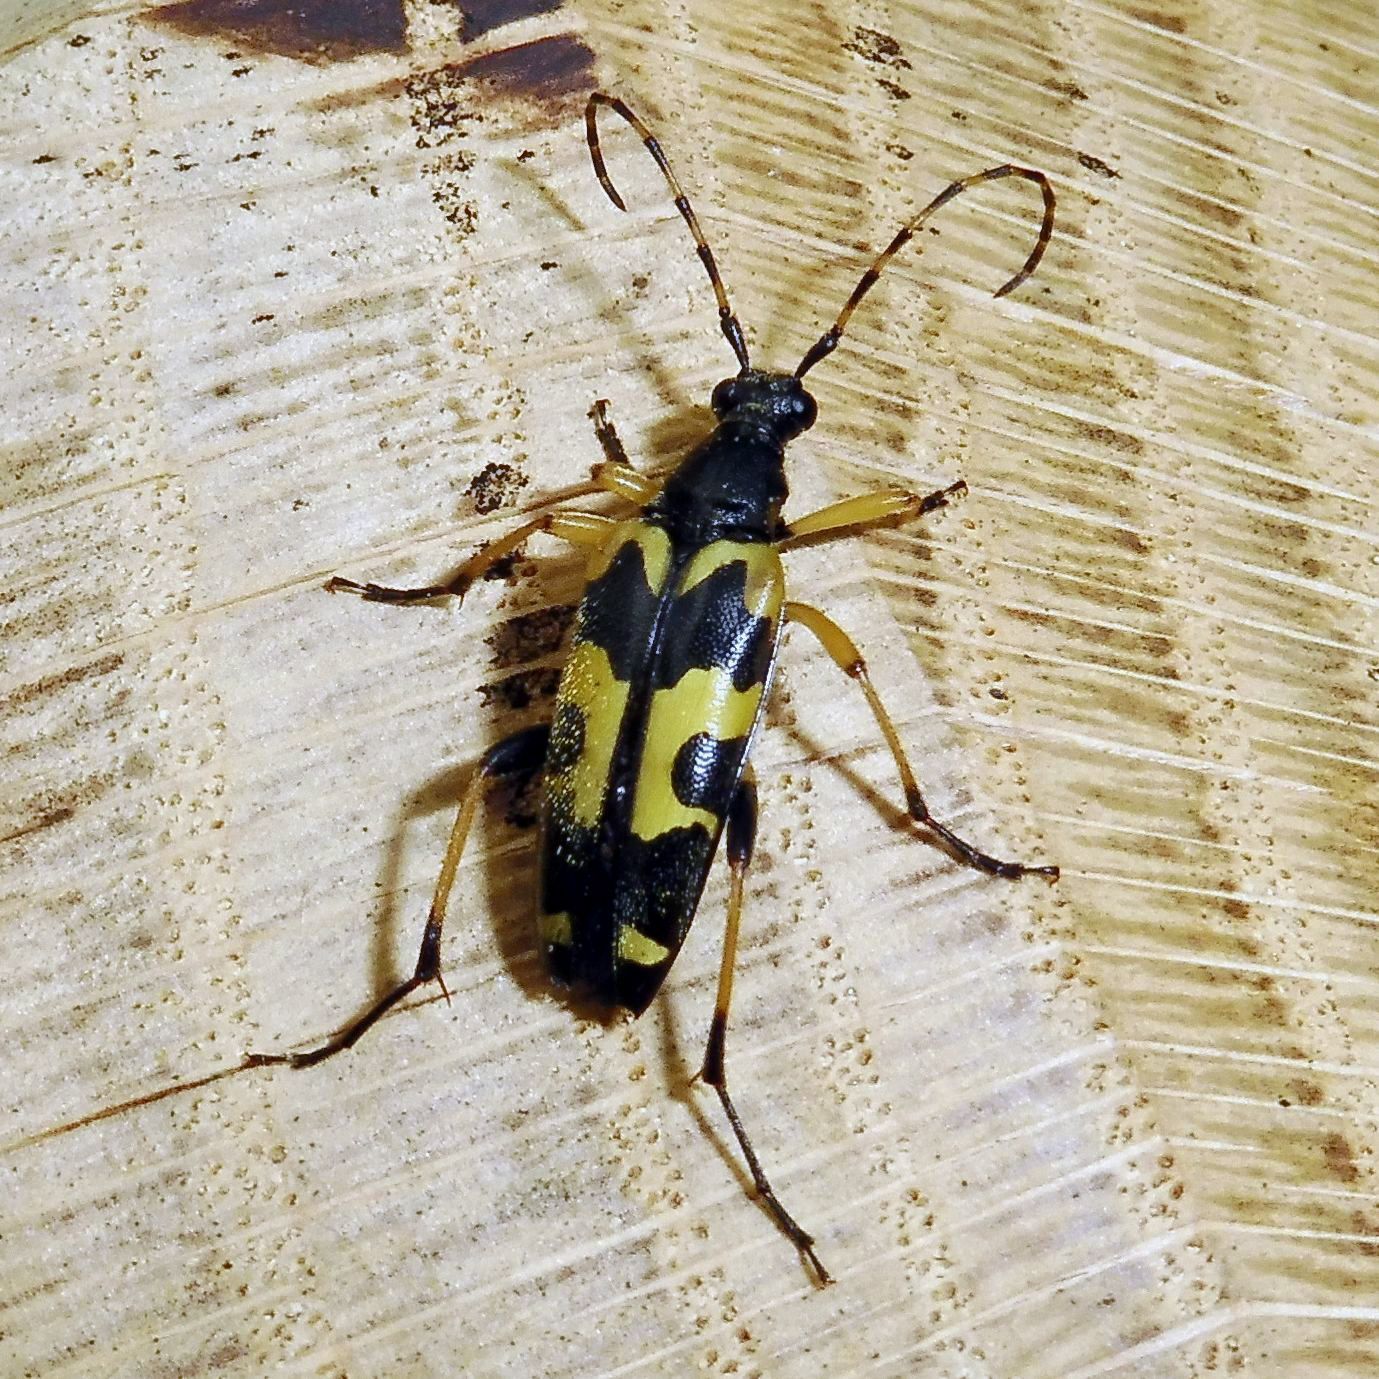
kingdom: Animalia
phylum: Arthropoda
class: Insecta
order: Coleoptera
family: Cerambycidae
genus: Rutpela
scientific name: Rutpela maculata
